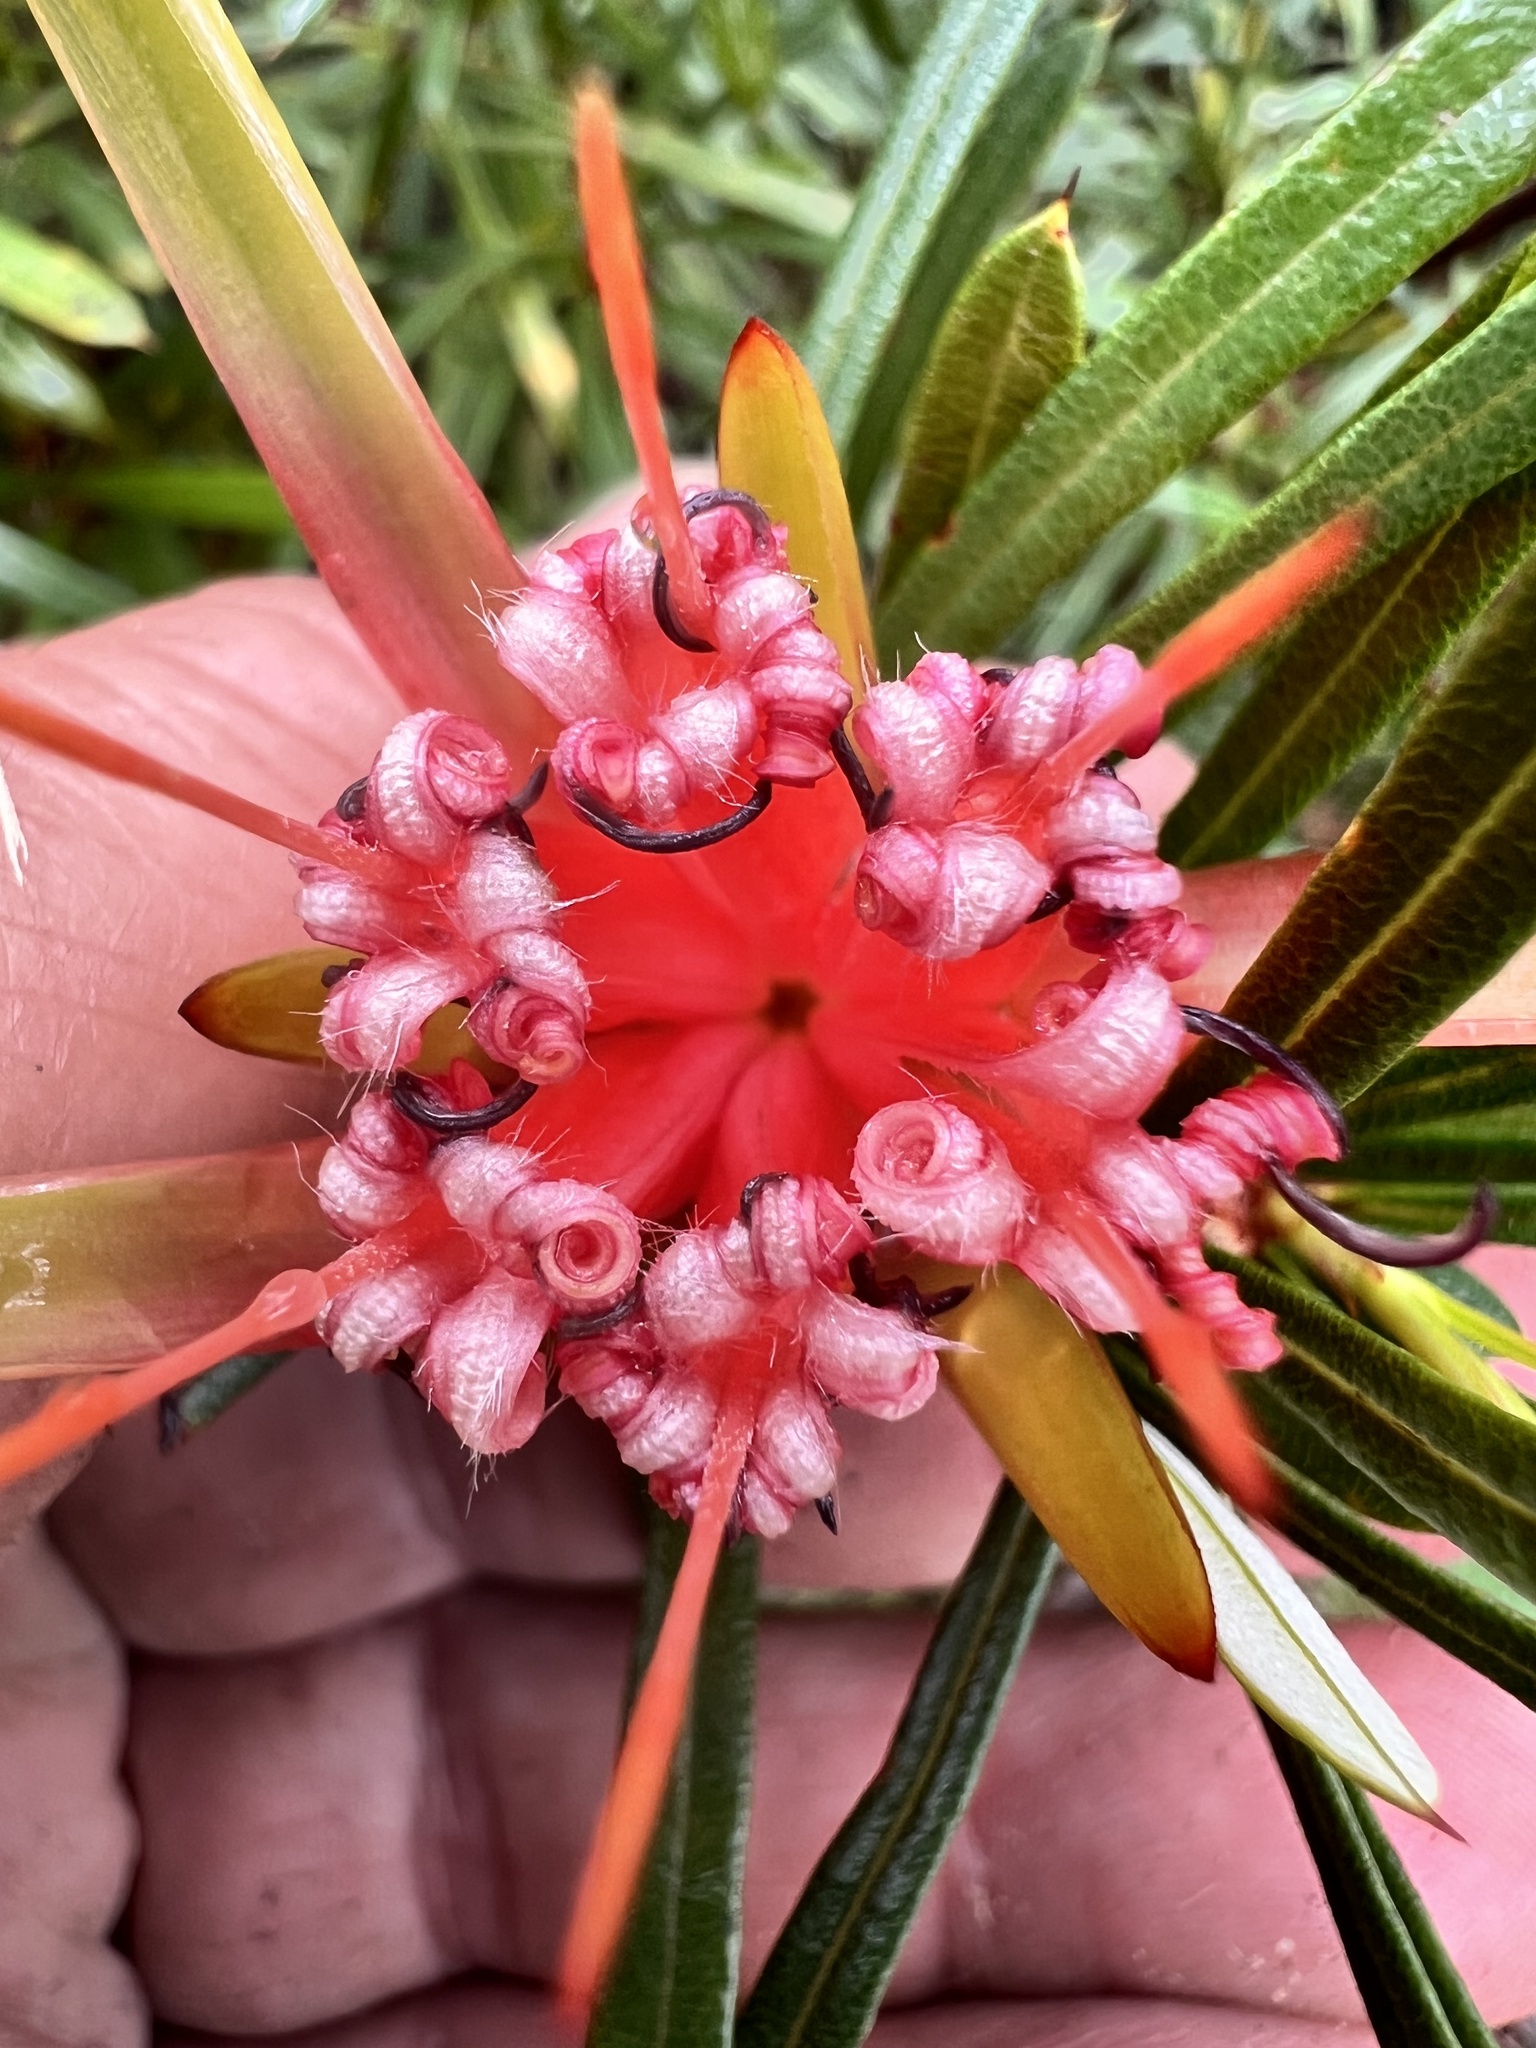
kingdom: Plantae
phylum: Tracheophyta
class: Magnoliopsida
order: Proteales
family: Proteaceae
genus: Lambertia
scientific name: Lambertia formosa
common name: Mountain-devil
